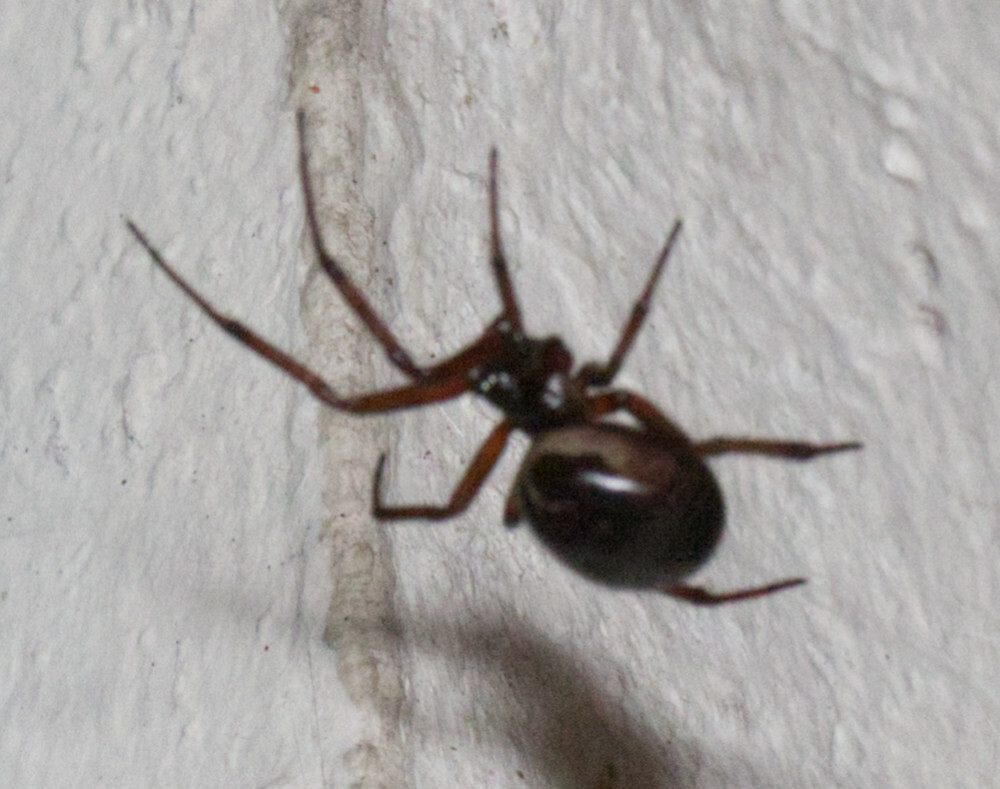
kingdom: Animalia
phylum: Arthropoda
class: Arachnida
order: Araneae
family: Theridiidae
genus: Steatoda
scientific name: Steatoda nobilis
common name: Cobweb weaver
